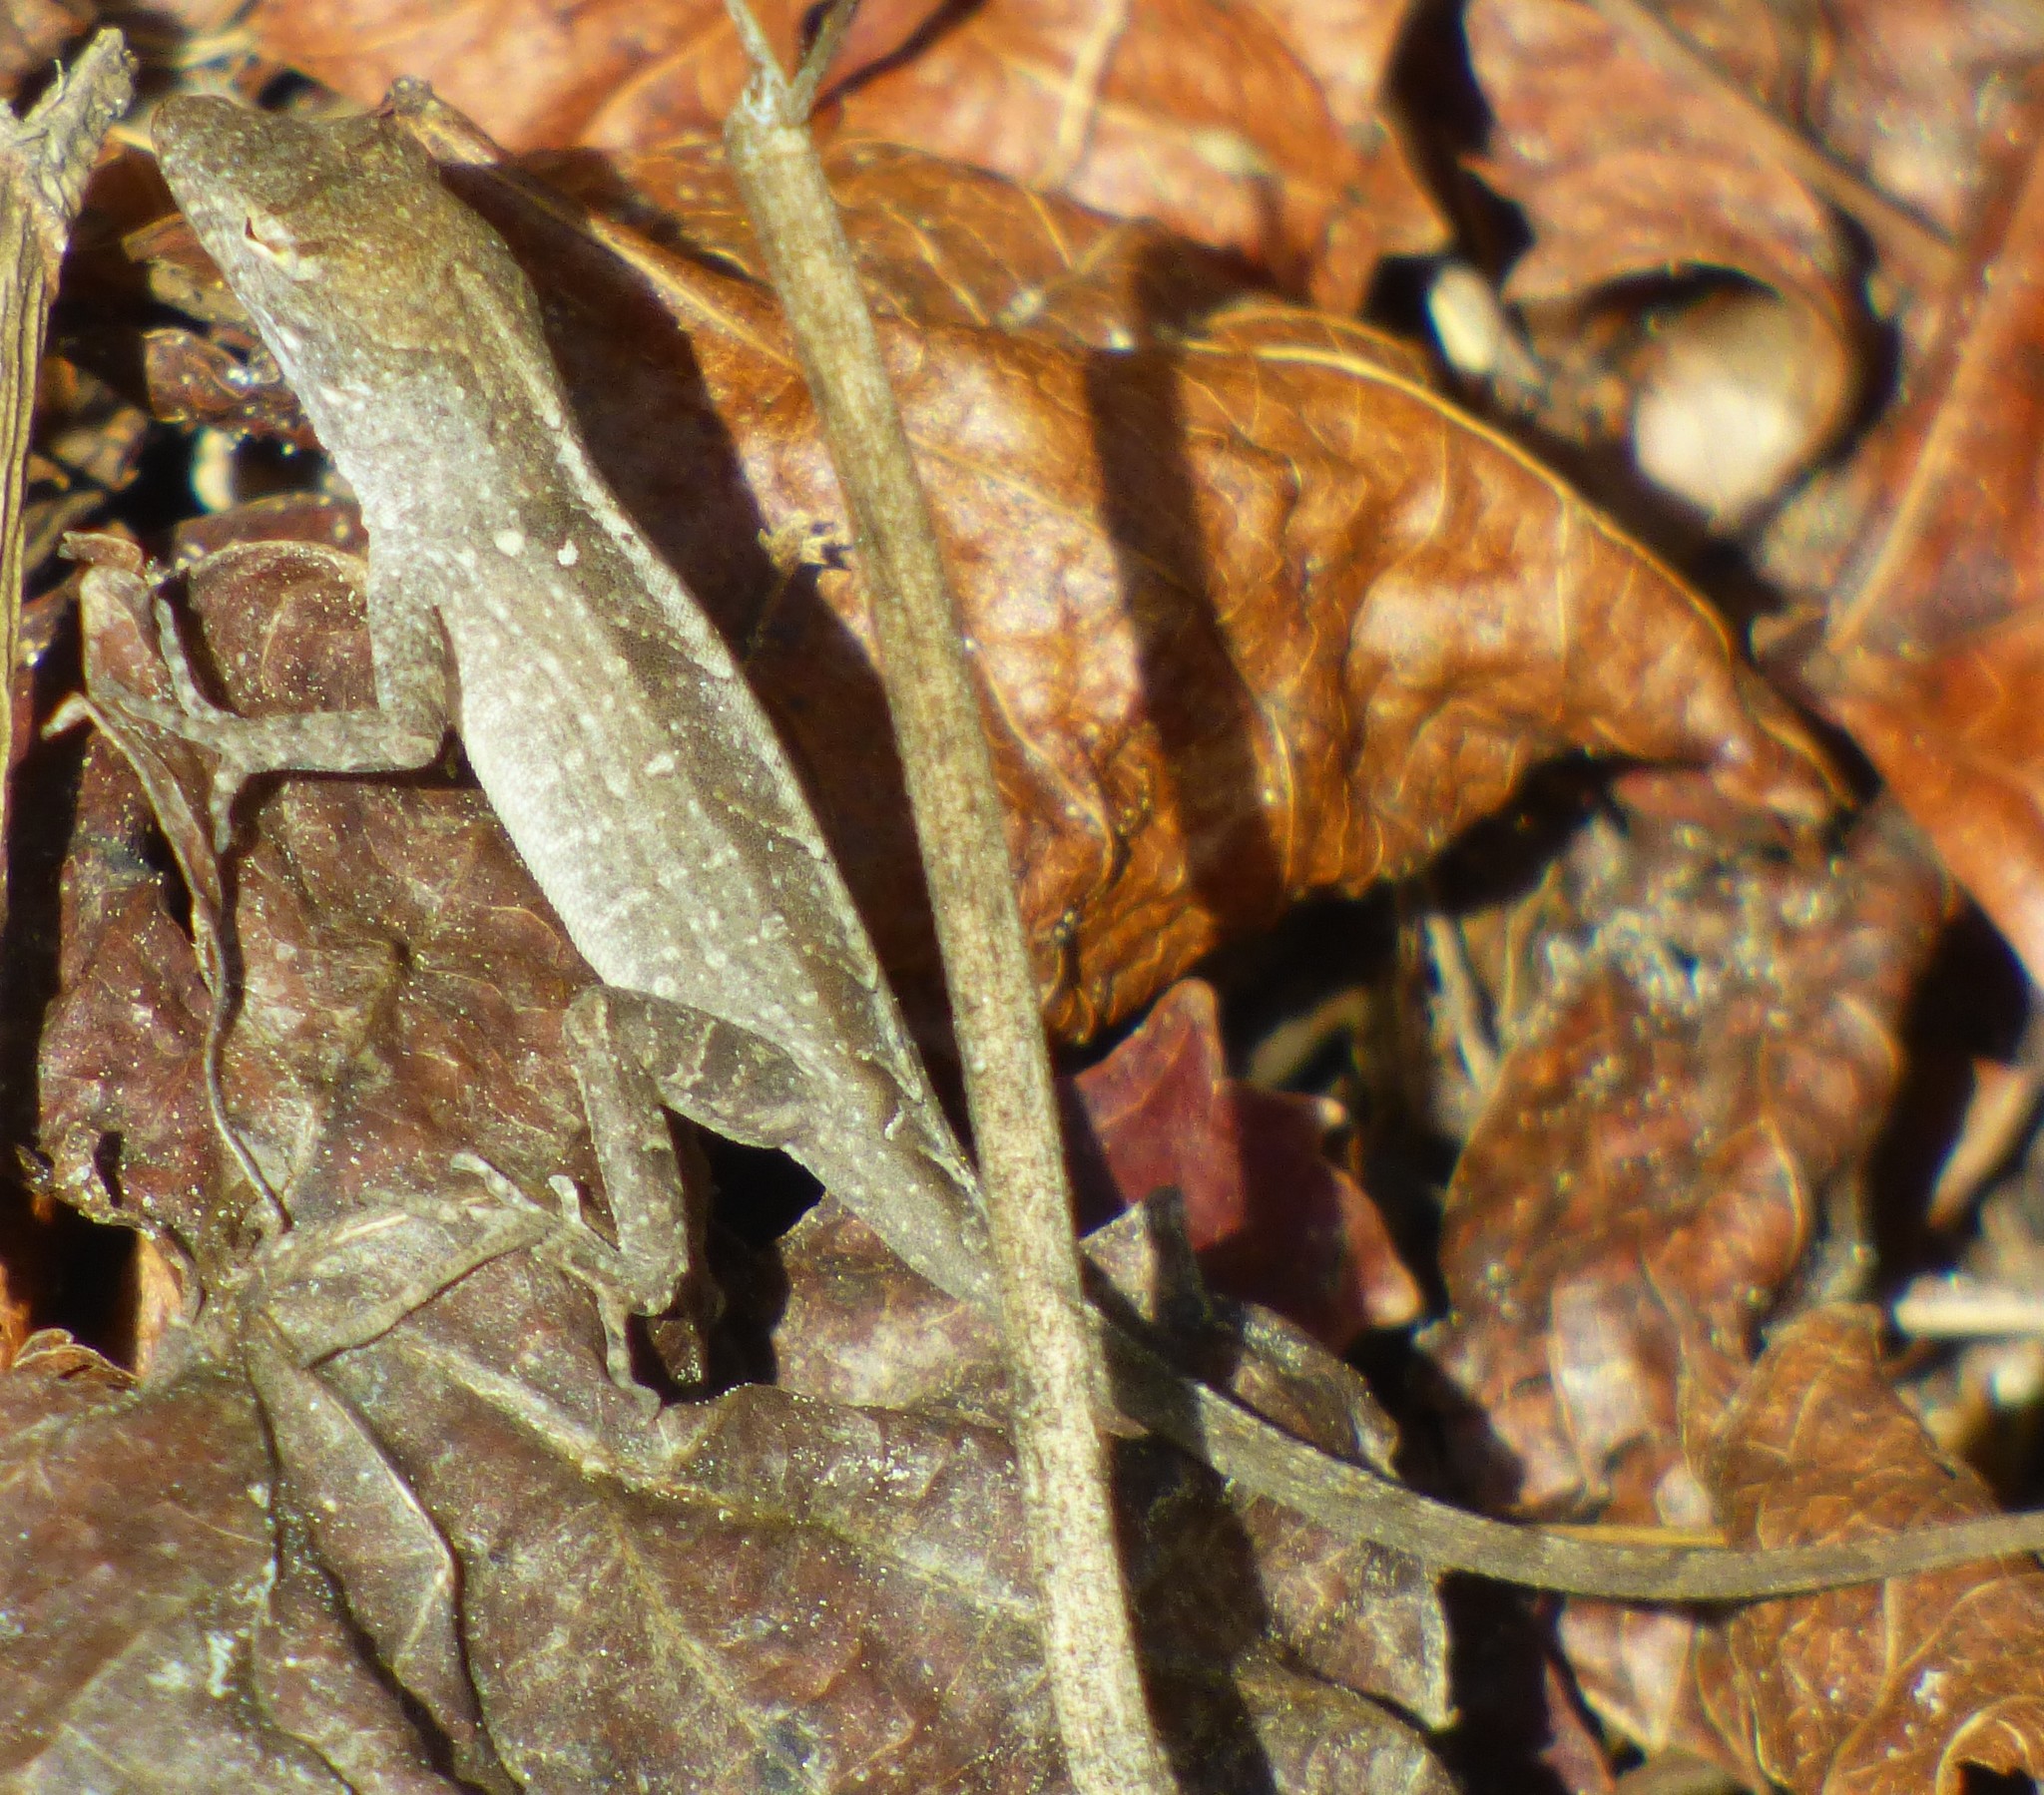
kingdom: Animalia
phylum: Chordata
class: Squamata
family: Dactyloidae
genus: Anolis
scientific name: Anolis sagrei
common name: Brown anole
